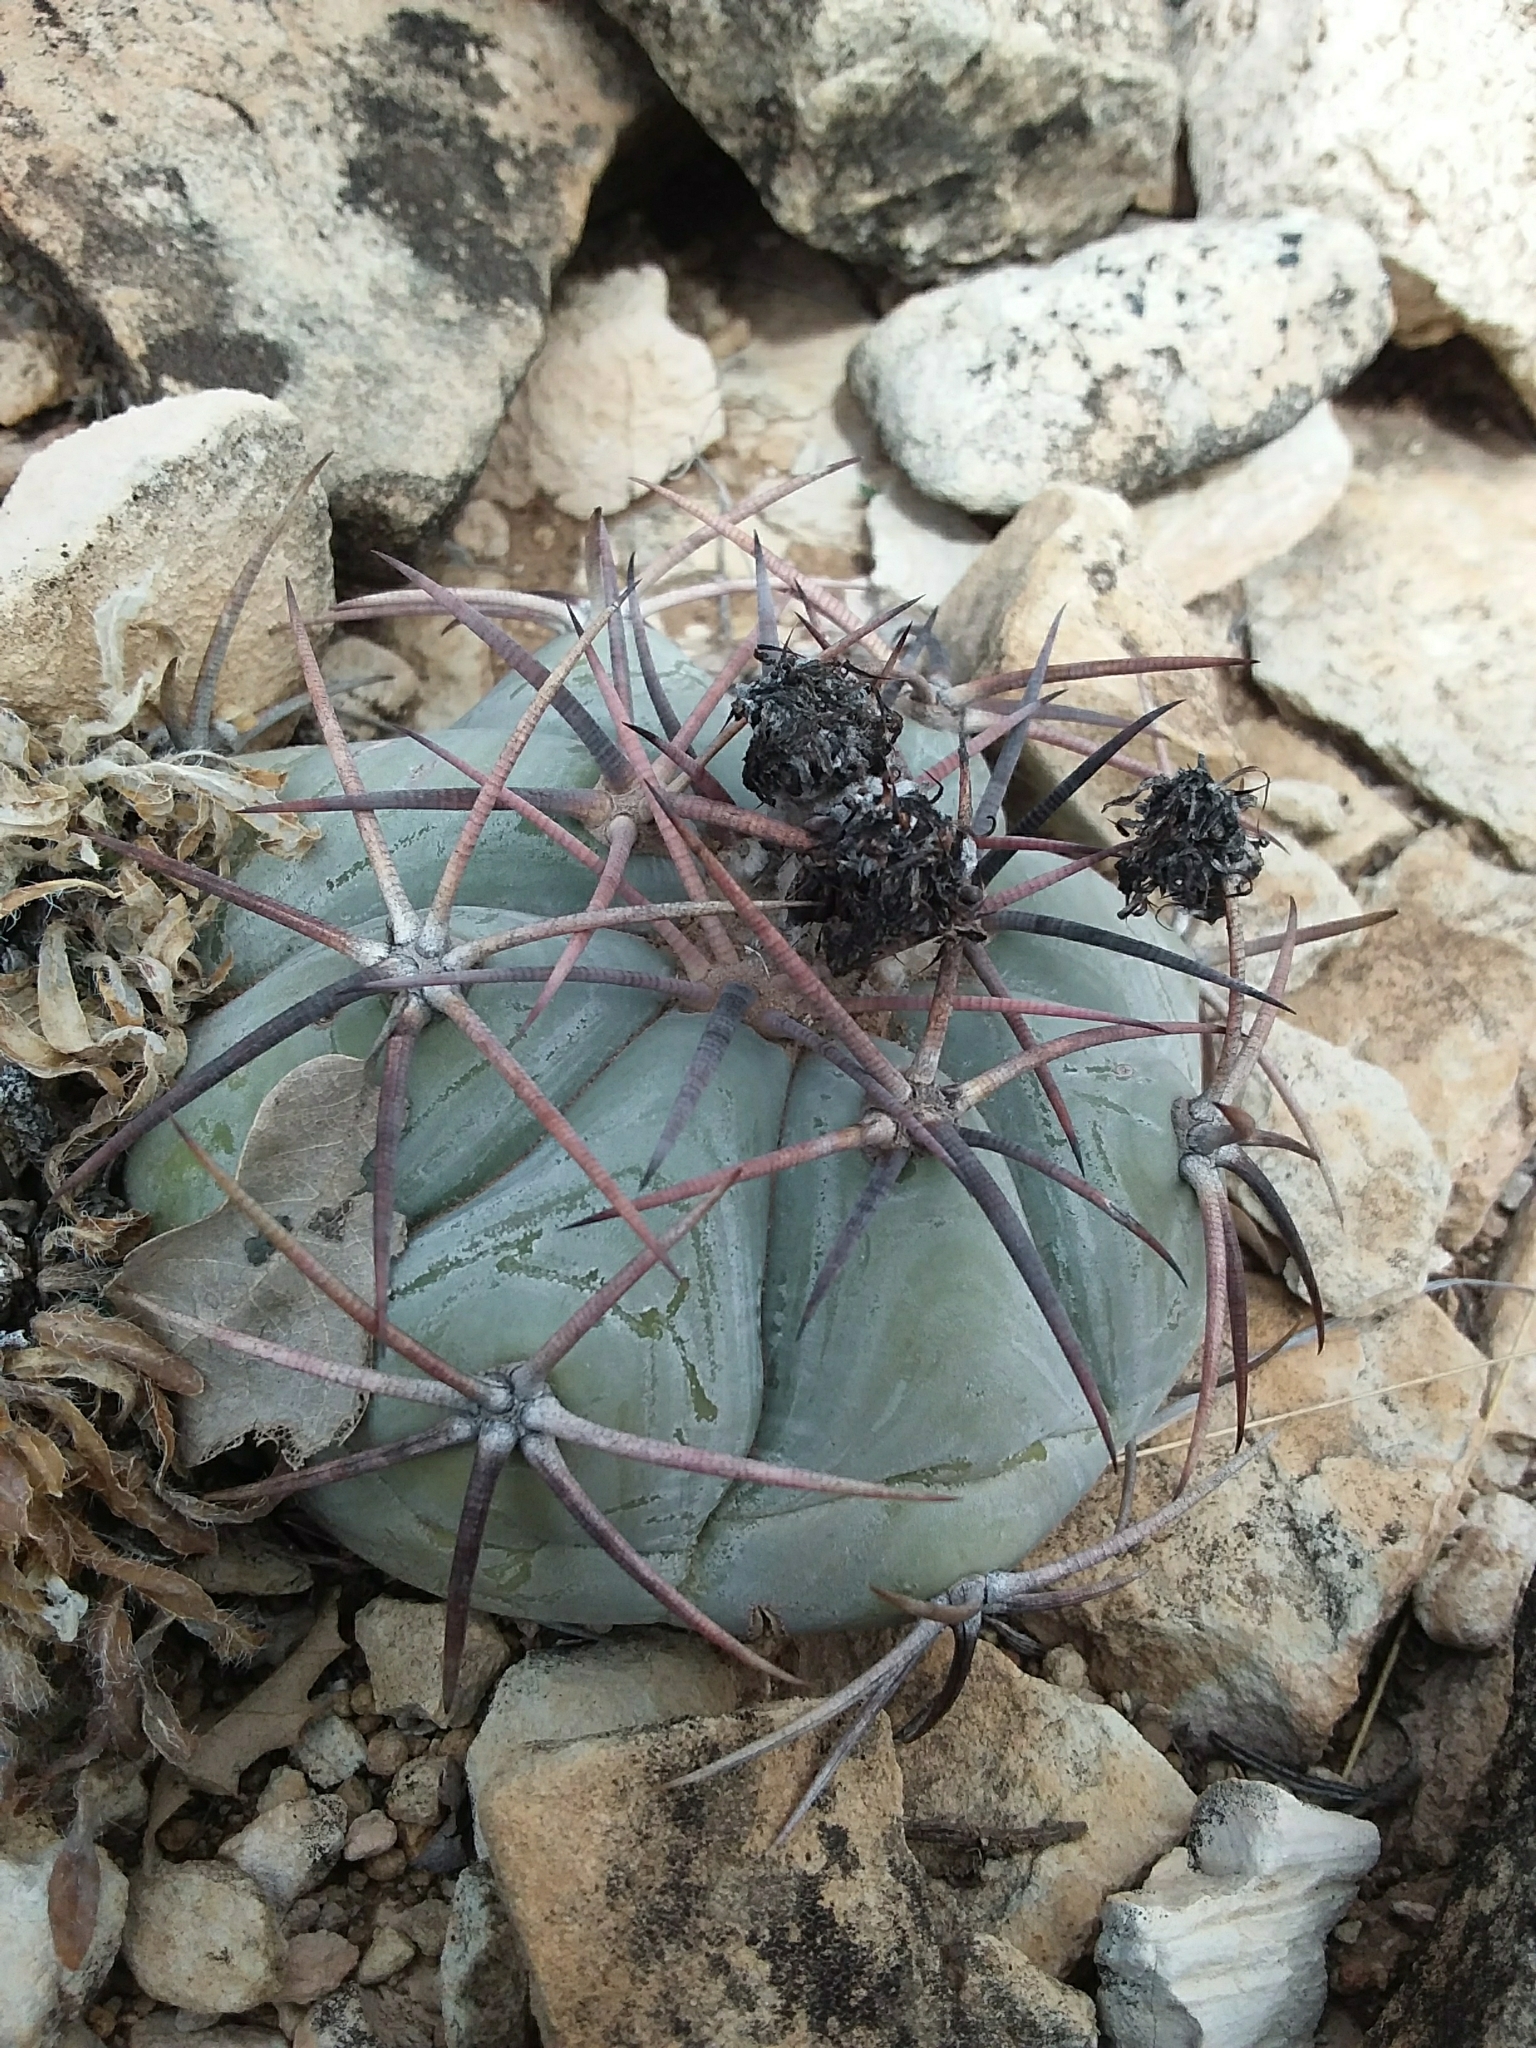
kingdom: Plantae
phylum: Tracheophyta
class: Magnoliopsida
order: Caryophyllales
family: Cactaceae
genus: Echinocactus
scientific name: Echinocactus horizonthalonius
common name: Devilshead
